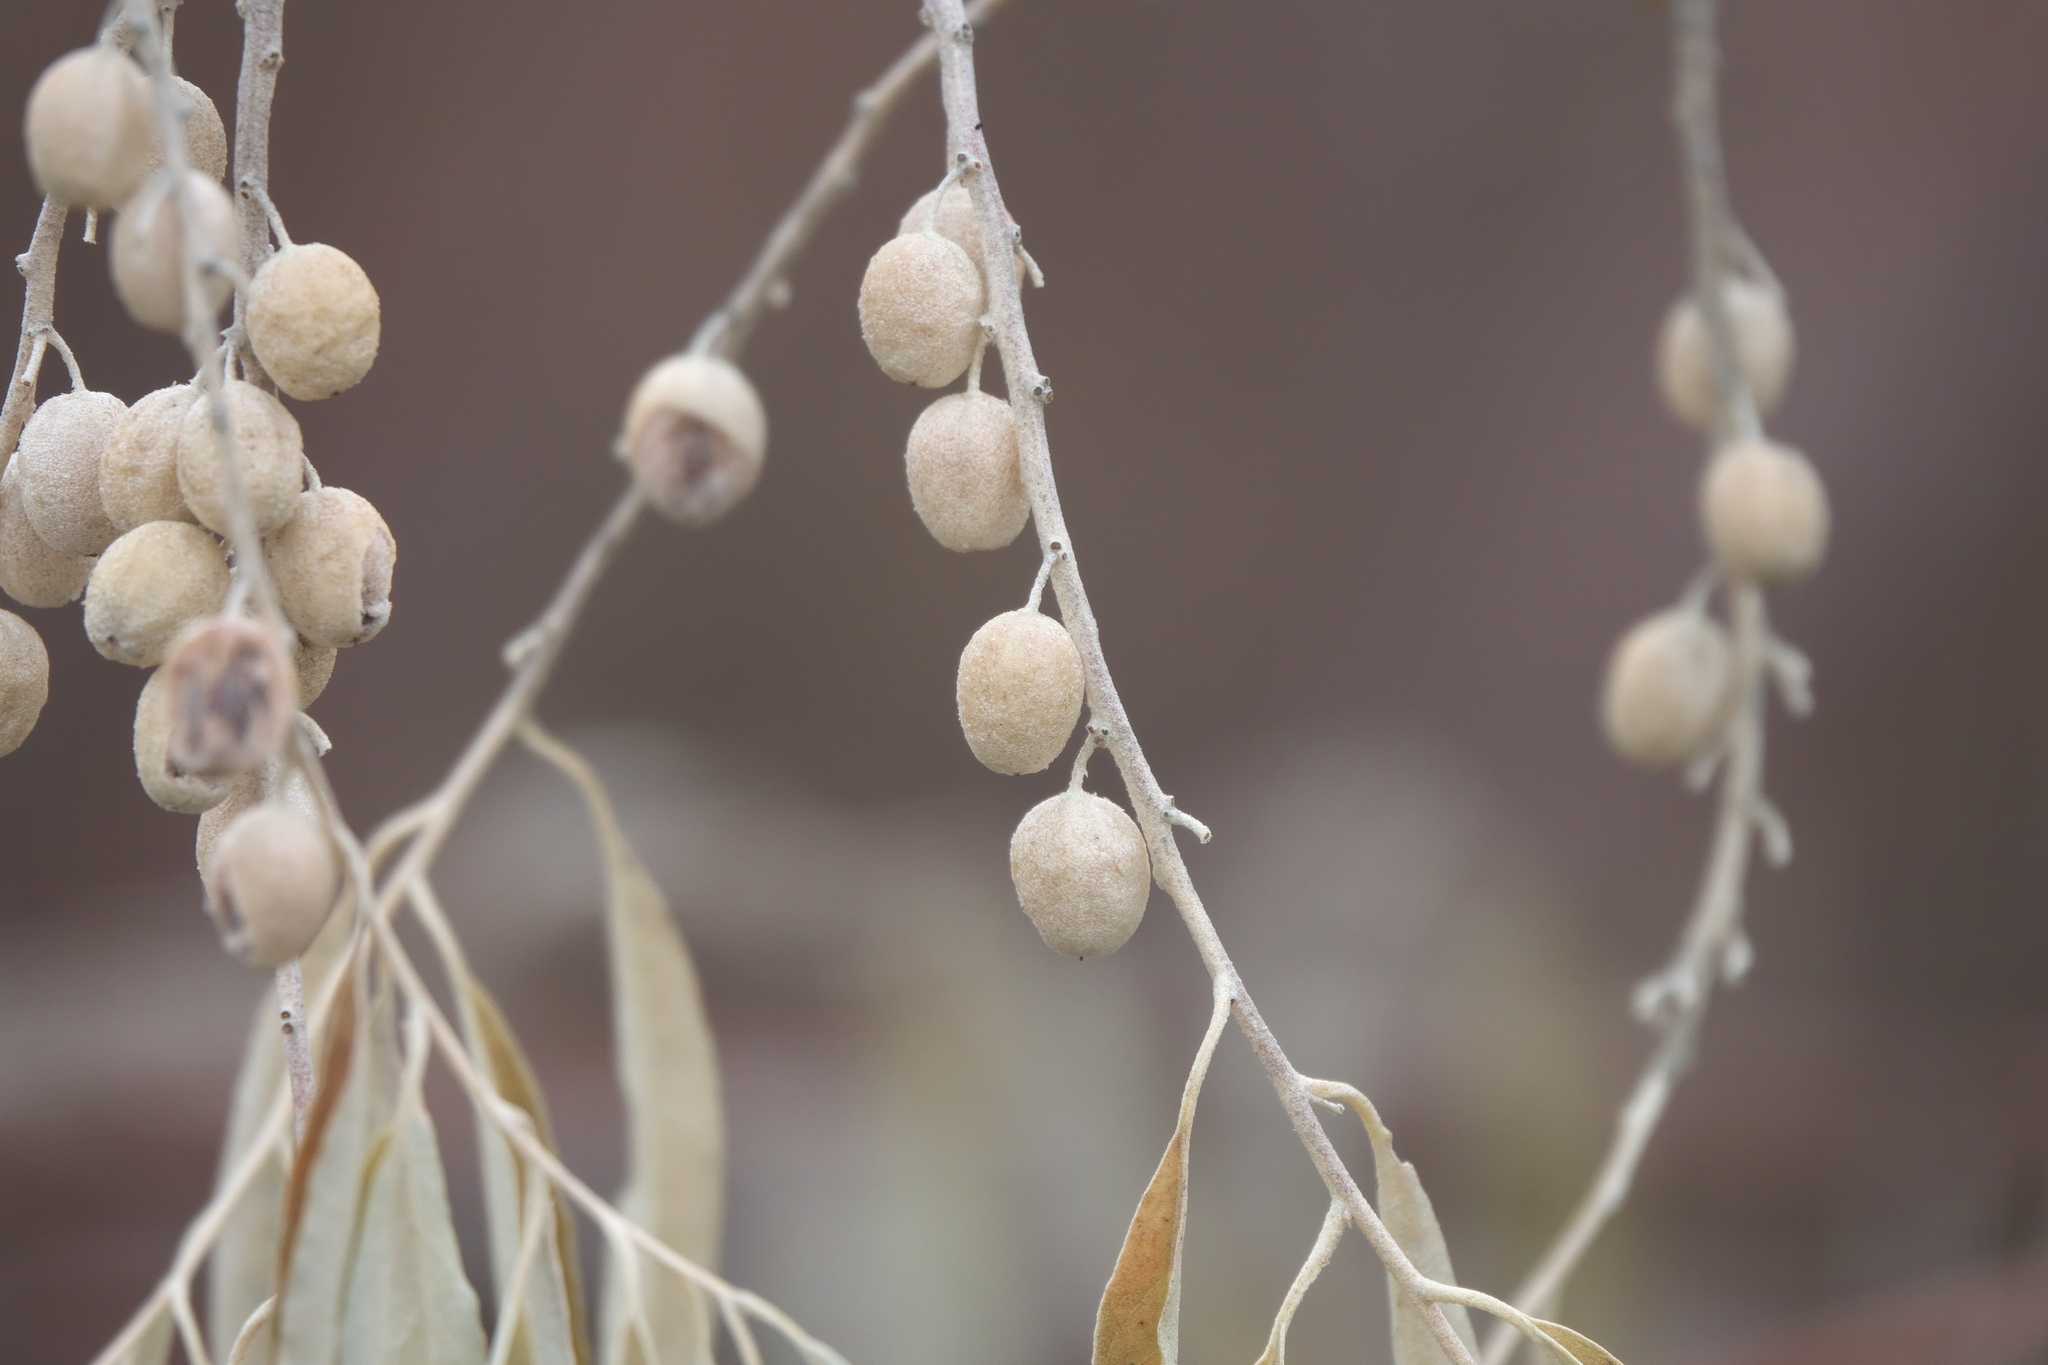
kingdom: Plantae
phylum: Tracheophyta
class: Magnoliopsida
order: Rosales
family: Elaeagnaceae
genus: Elaeagnus
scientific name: Elaeagnus angustifolia
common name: Russian olive
